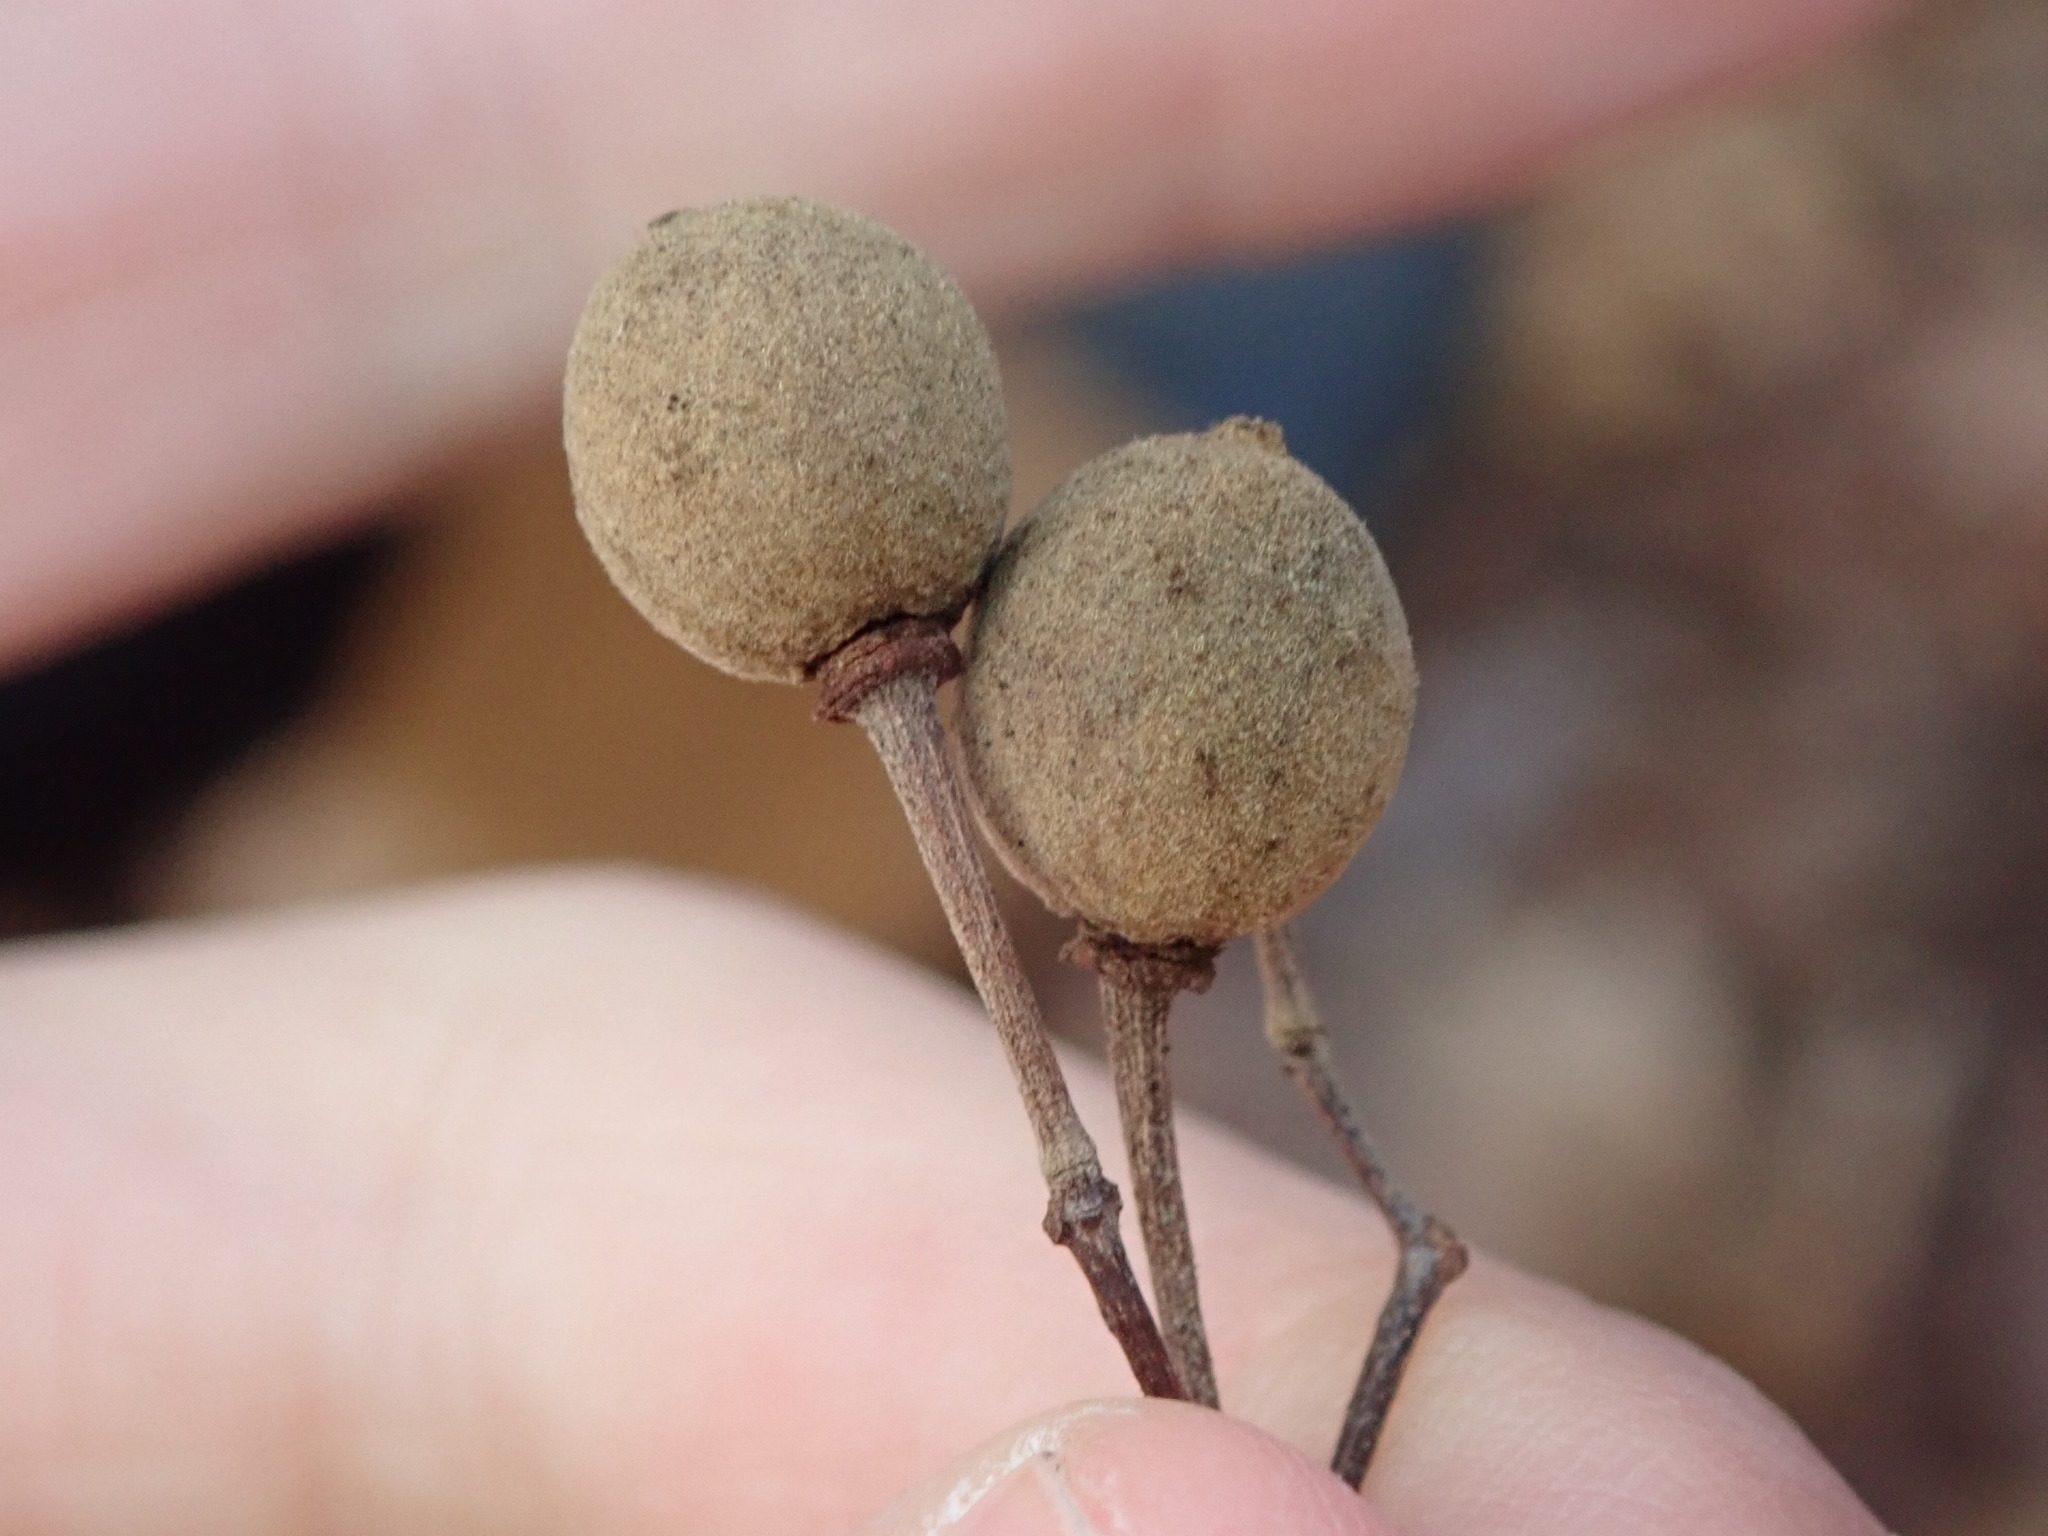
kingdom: Plantae
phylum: Tracheophyta
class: Magnoliopsida
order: Malvales
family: Malvaceae
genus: Tilia
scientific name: Tilia americana
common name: Basswood
